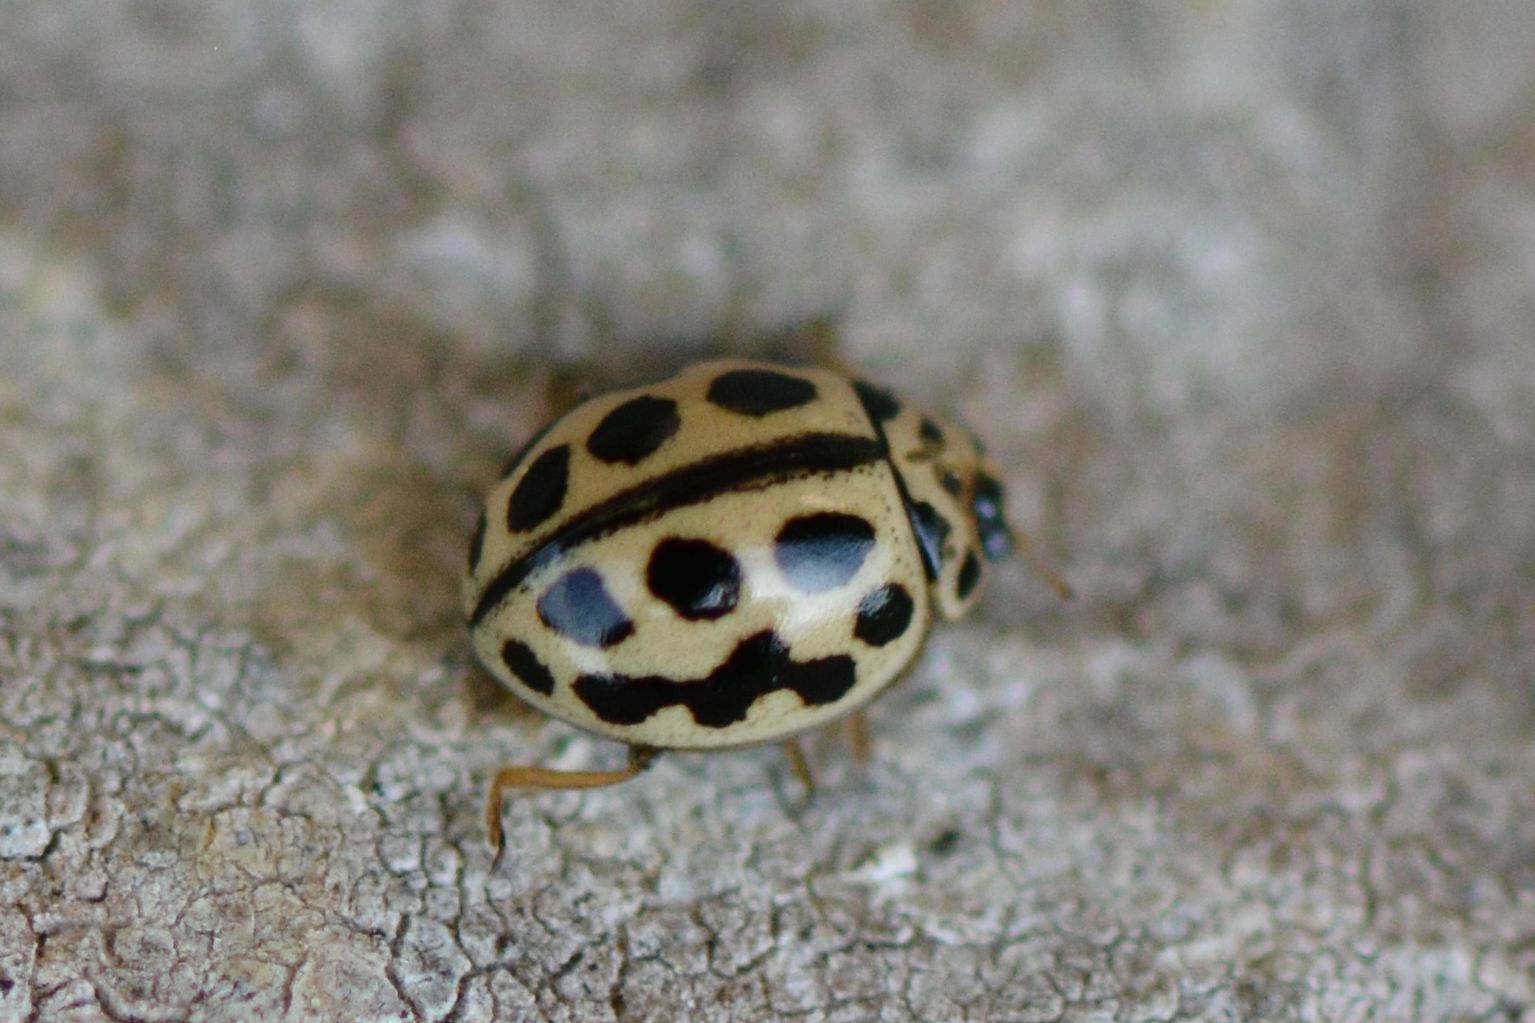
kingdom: Animalia
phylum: Arthropoda
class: Insecta
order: Coleoptera
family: Coccinellidae
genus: Tytthaspis
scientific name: Tytthaspis sedecimpunctata
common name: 16-spot ladybird
